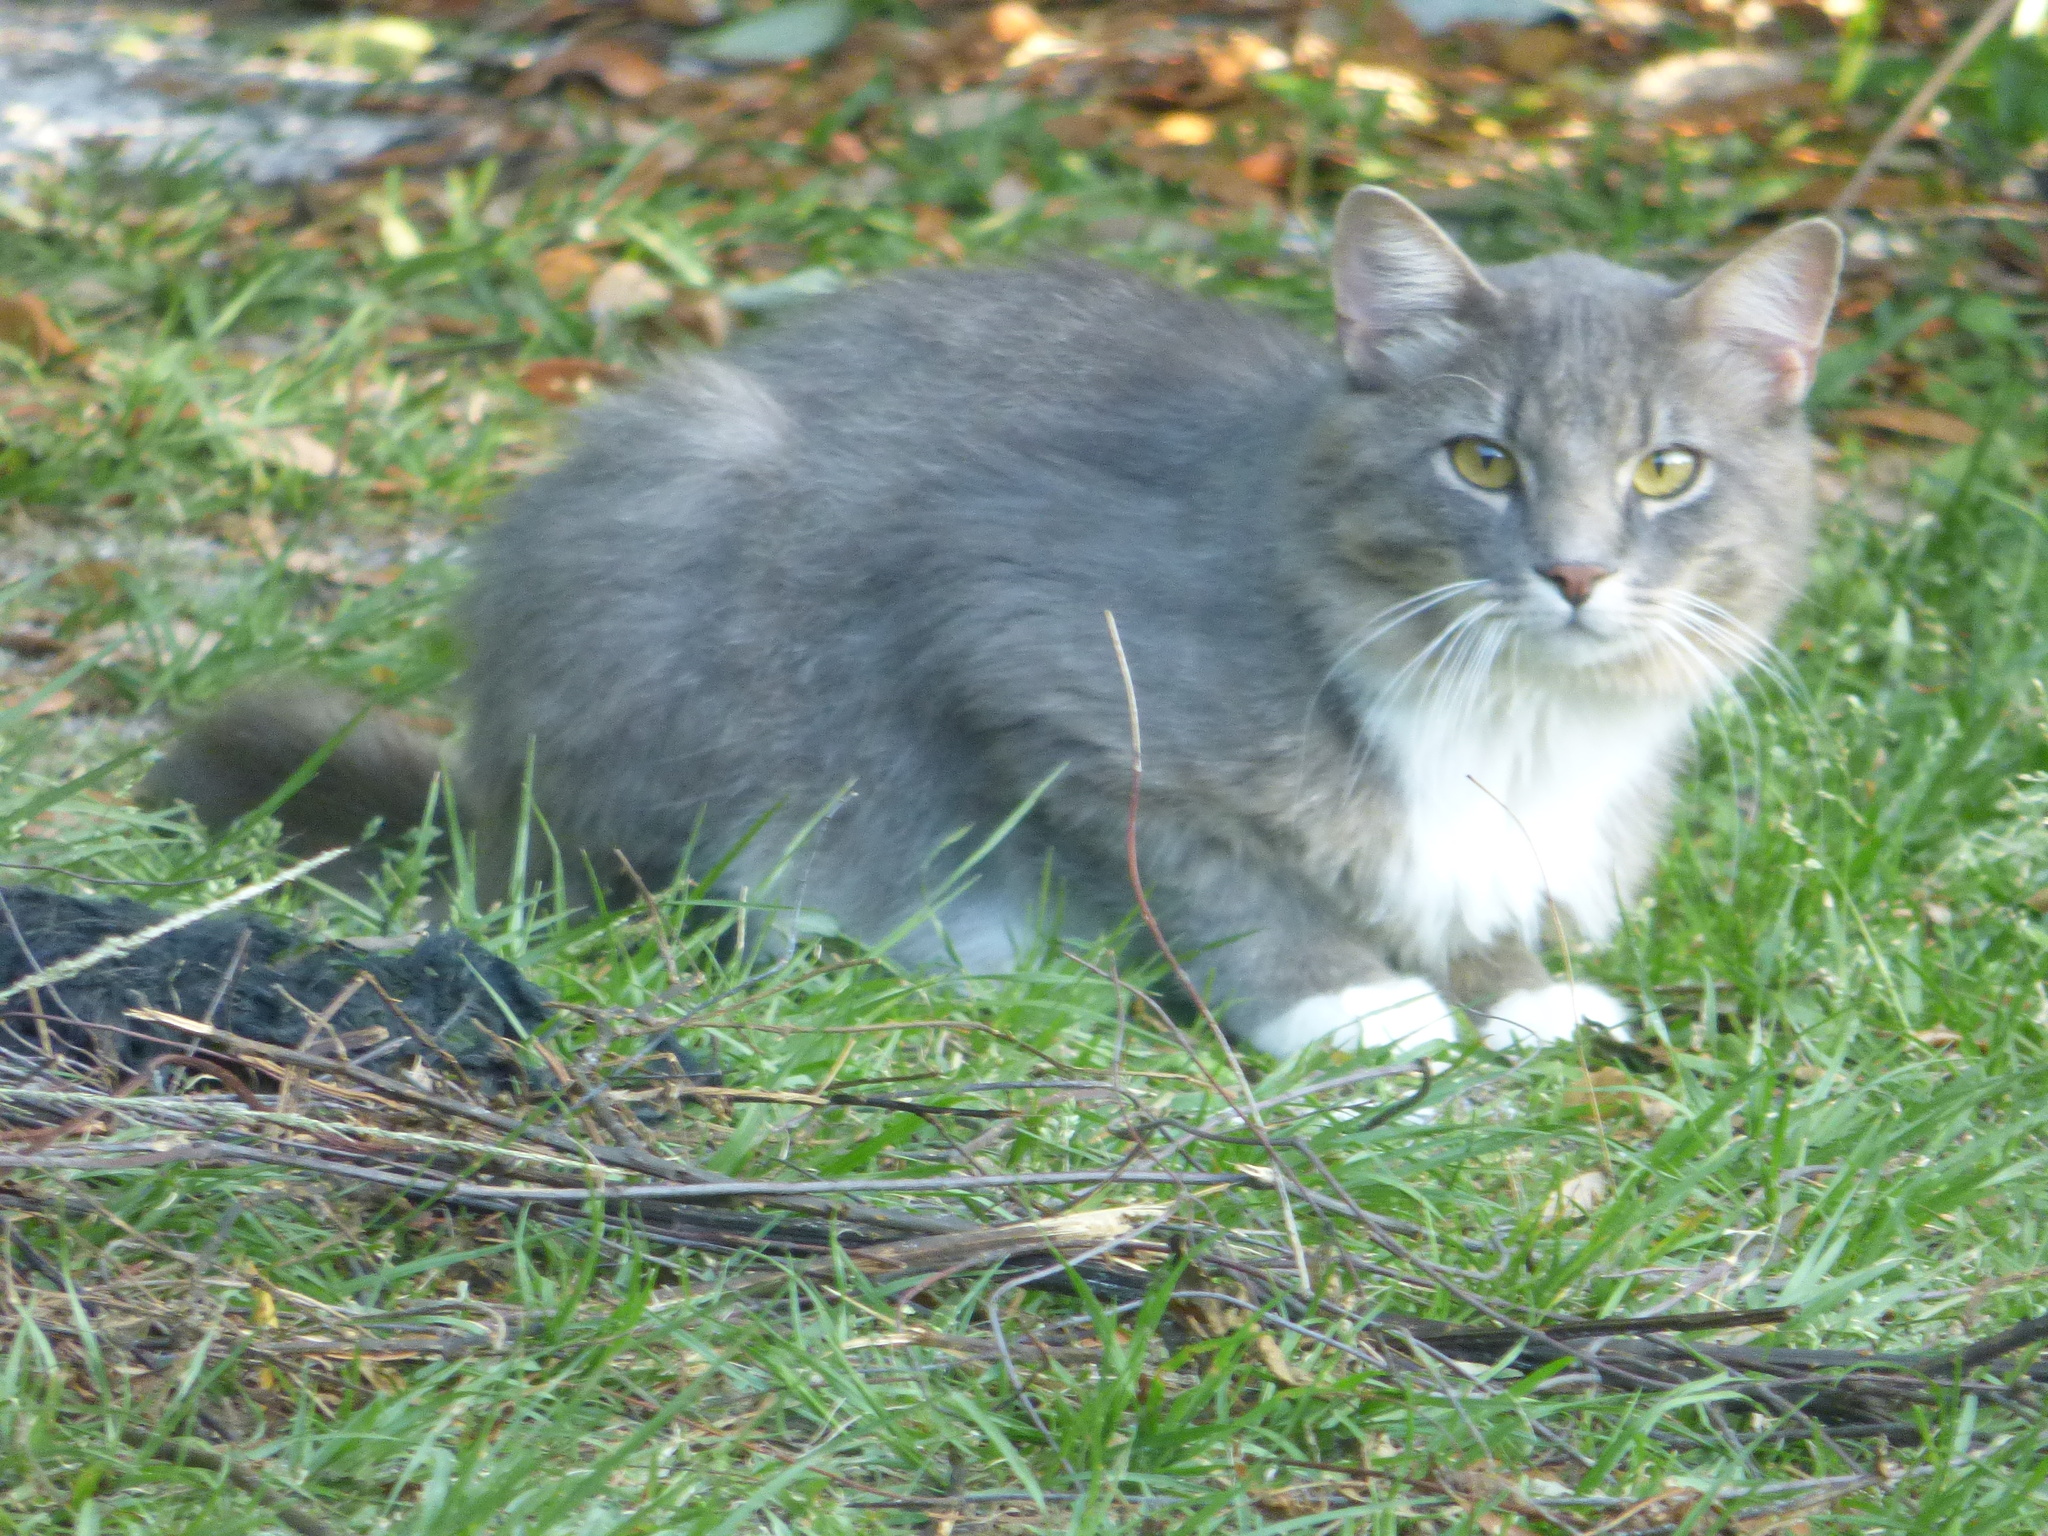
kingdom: Animalia
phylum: Chordata
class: Mammalia
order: Carnivora
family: Felidae
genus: Felis
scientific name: Felis catus
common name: Domestic cat
